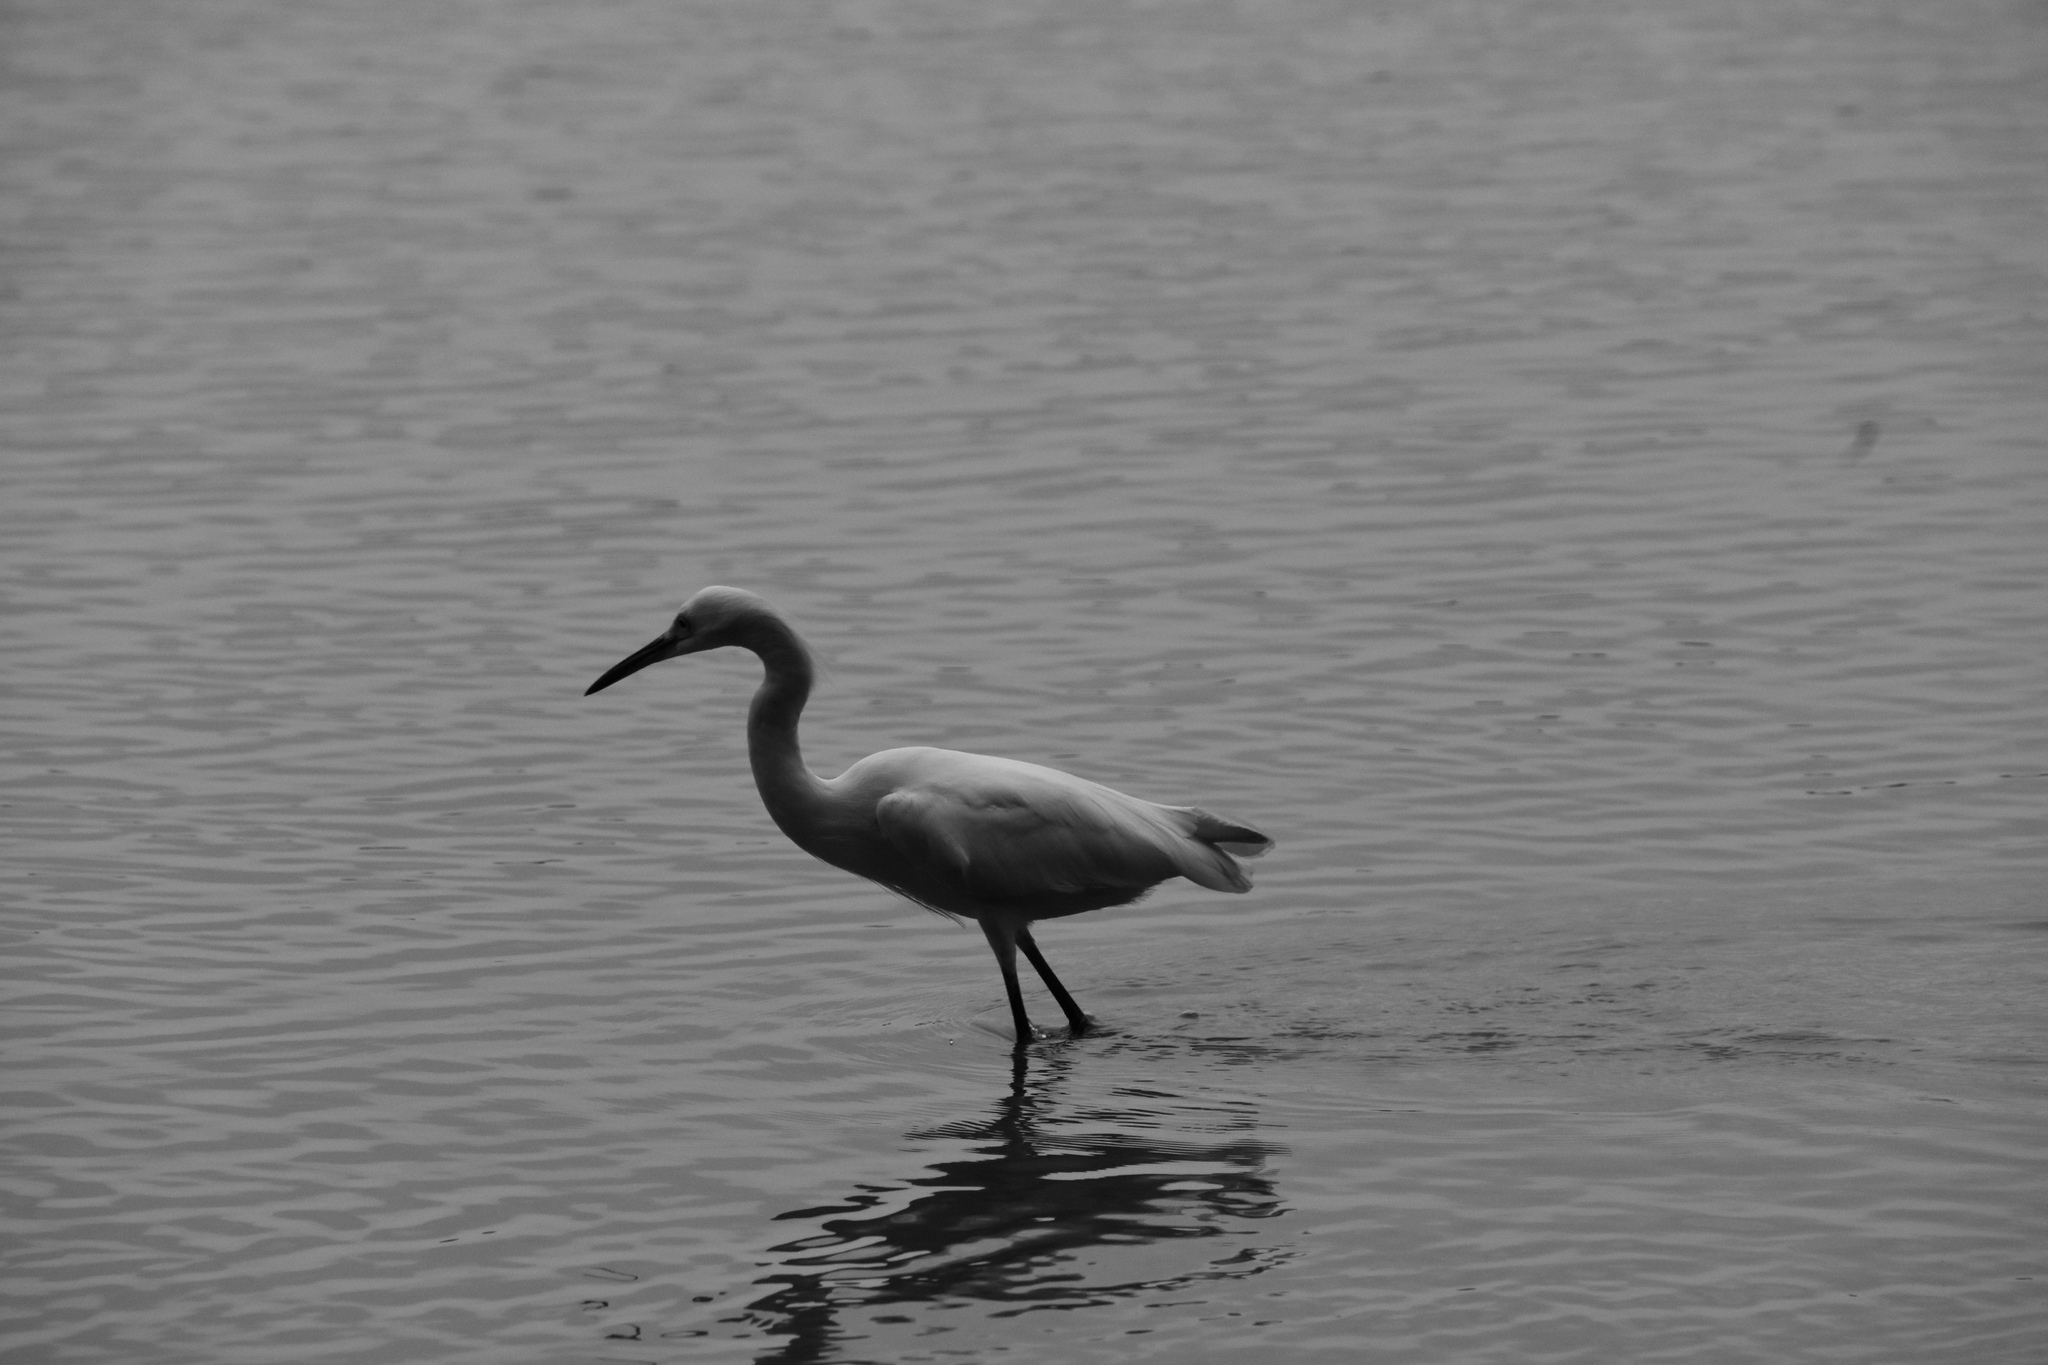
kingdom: Animalia
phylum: Chordata
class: Aves
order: Pelecaniformes
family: Ardeidae
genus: Egretta
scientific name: Egretta thula
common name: Snowy egret
